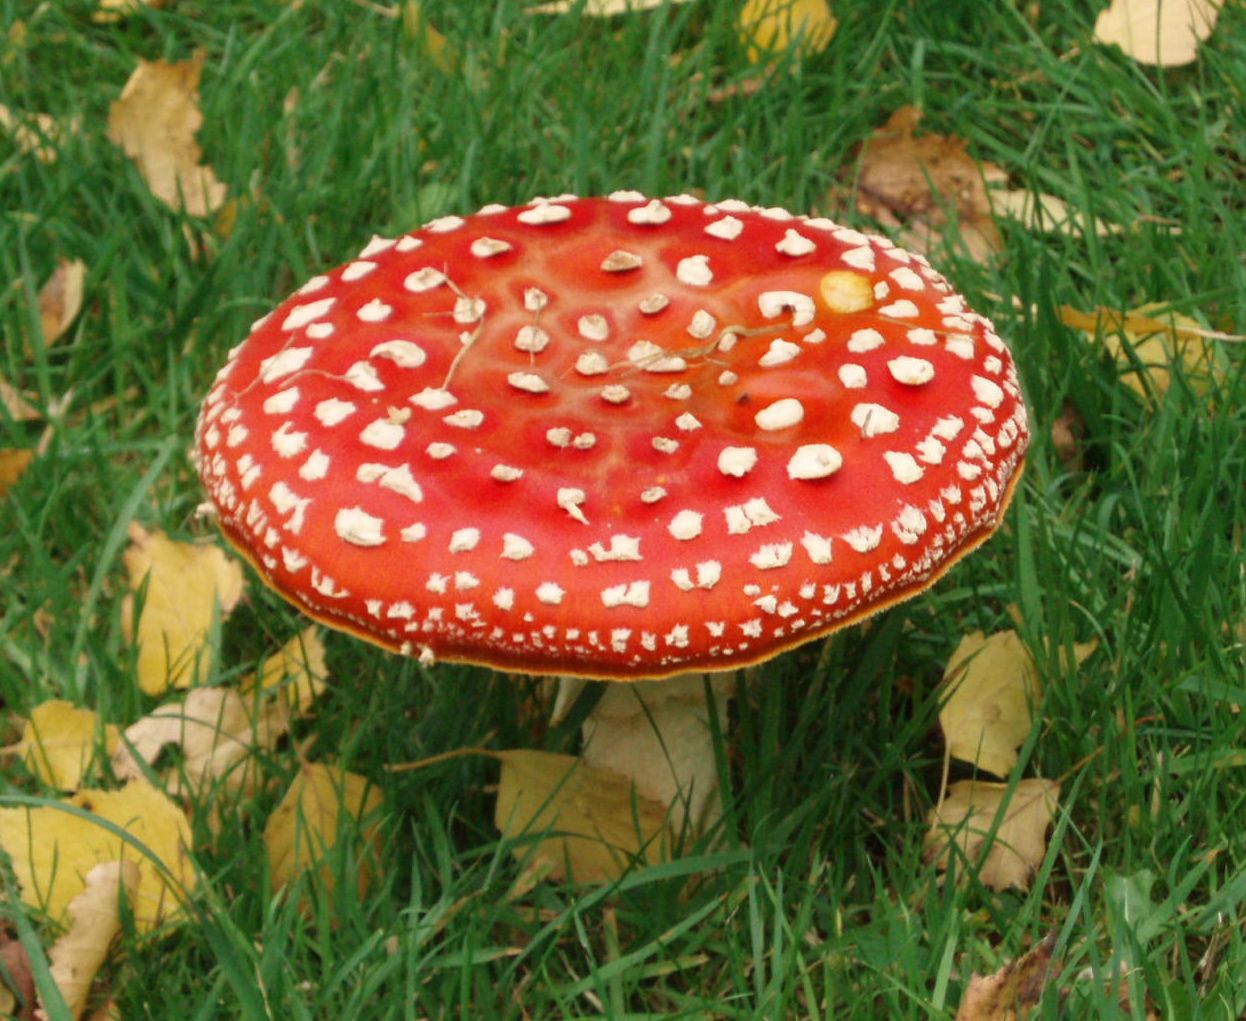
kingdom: Fungi
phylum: Basidiomycota
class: Agaricomycetes
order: Agaricales
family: Amanitaceae
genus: Amanita
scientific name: Amanita muscaria
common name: Fly agaric
